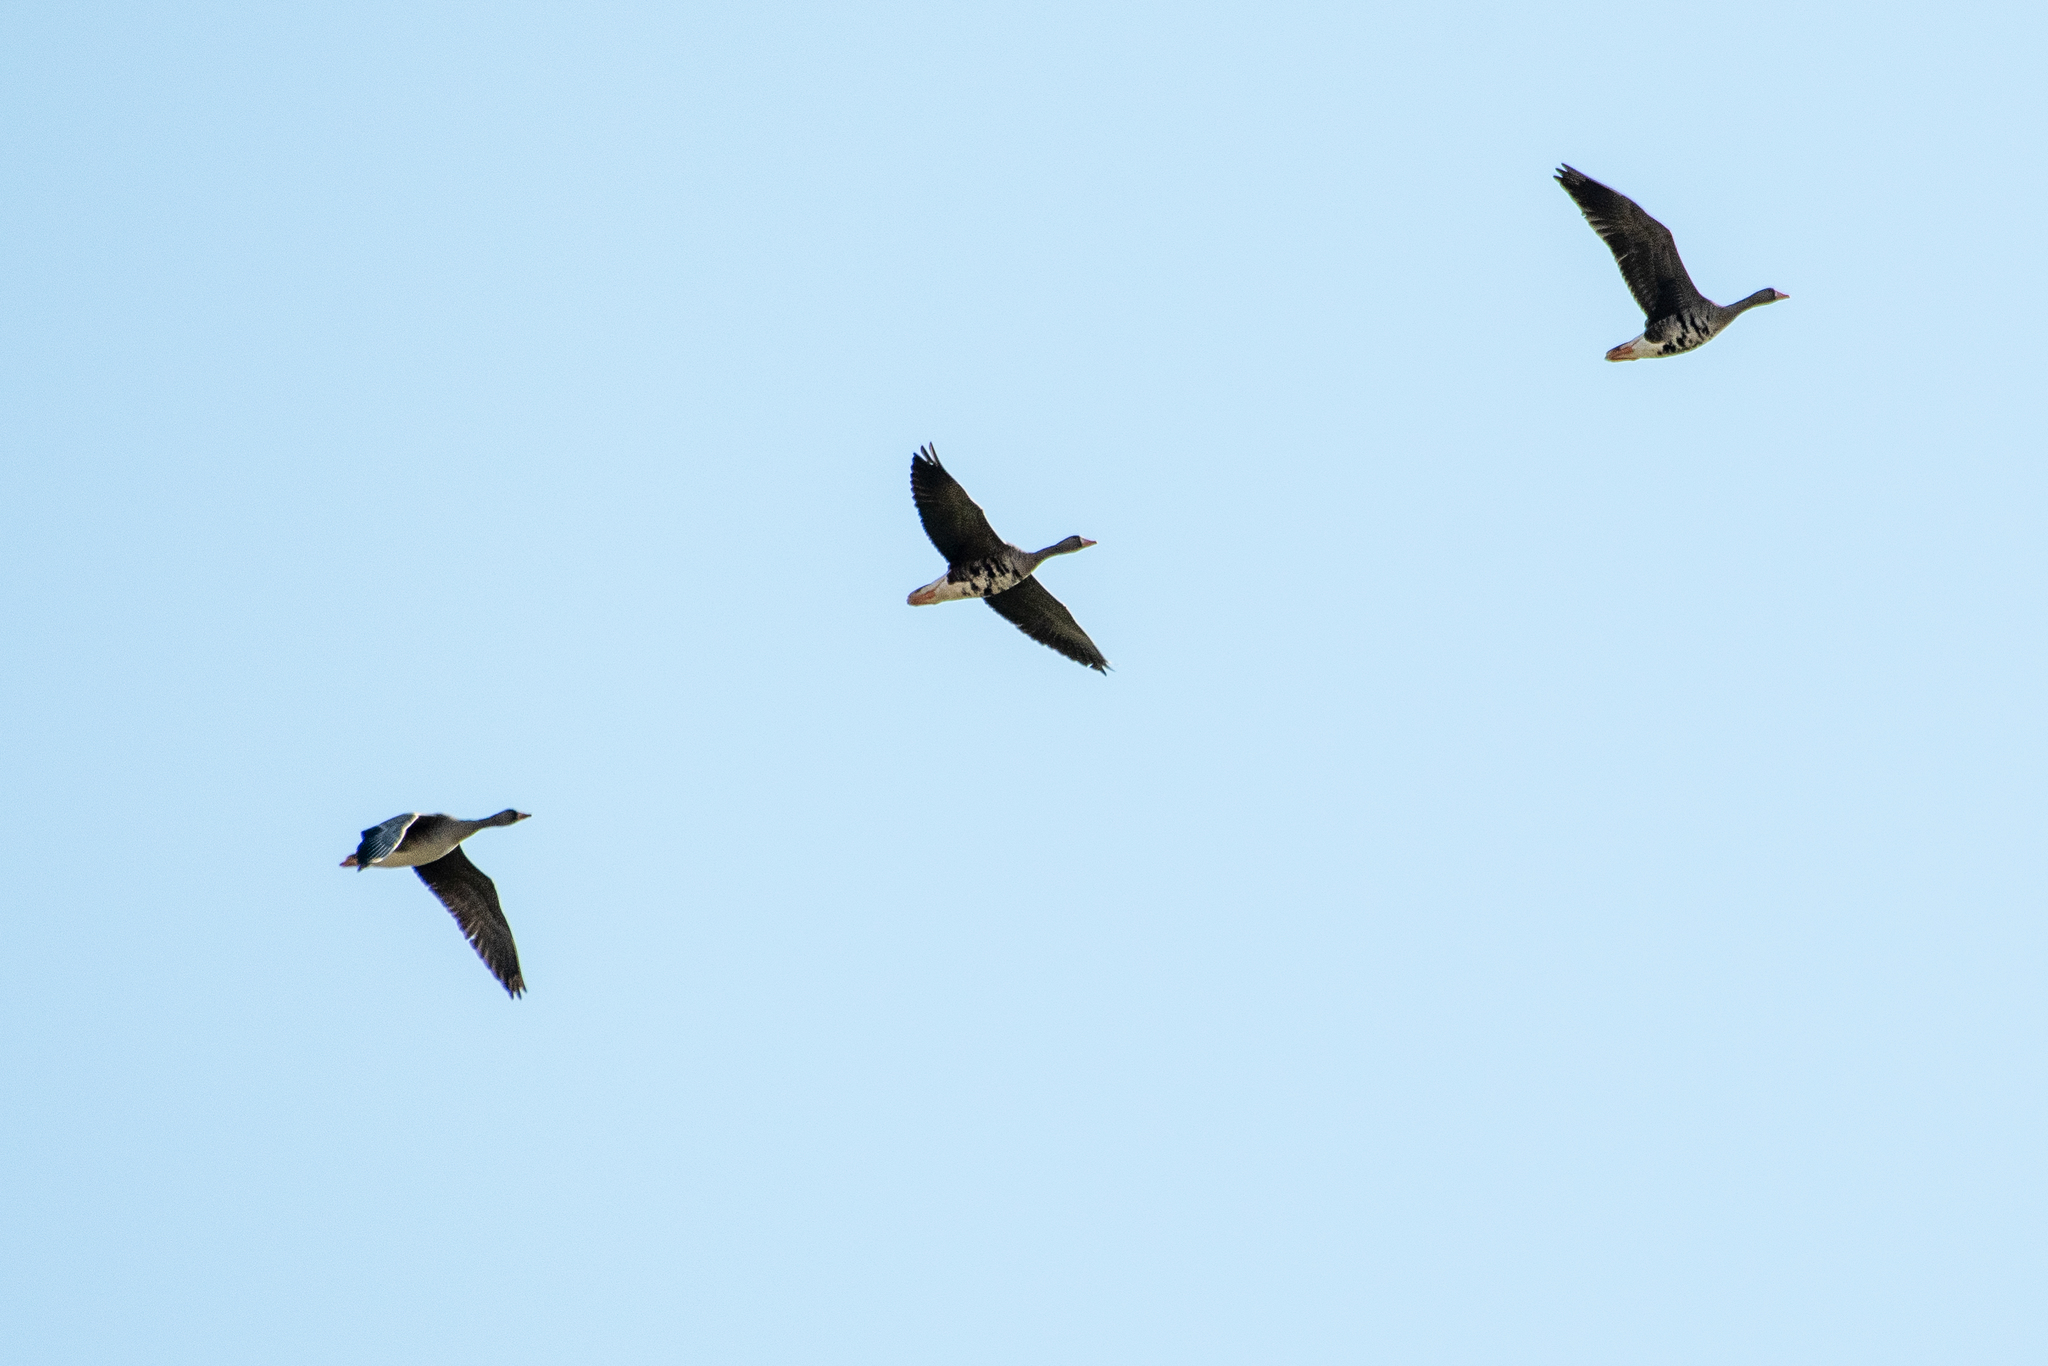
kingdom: Animalia
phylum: Chordata
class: Aves
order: Anseriformes
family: Anatidae
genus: Anser
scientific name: Anser albifrons
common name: Greater white-fronted goose
